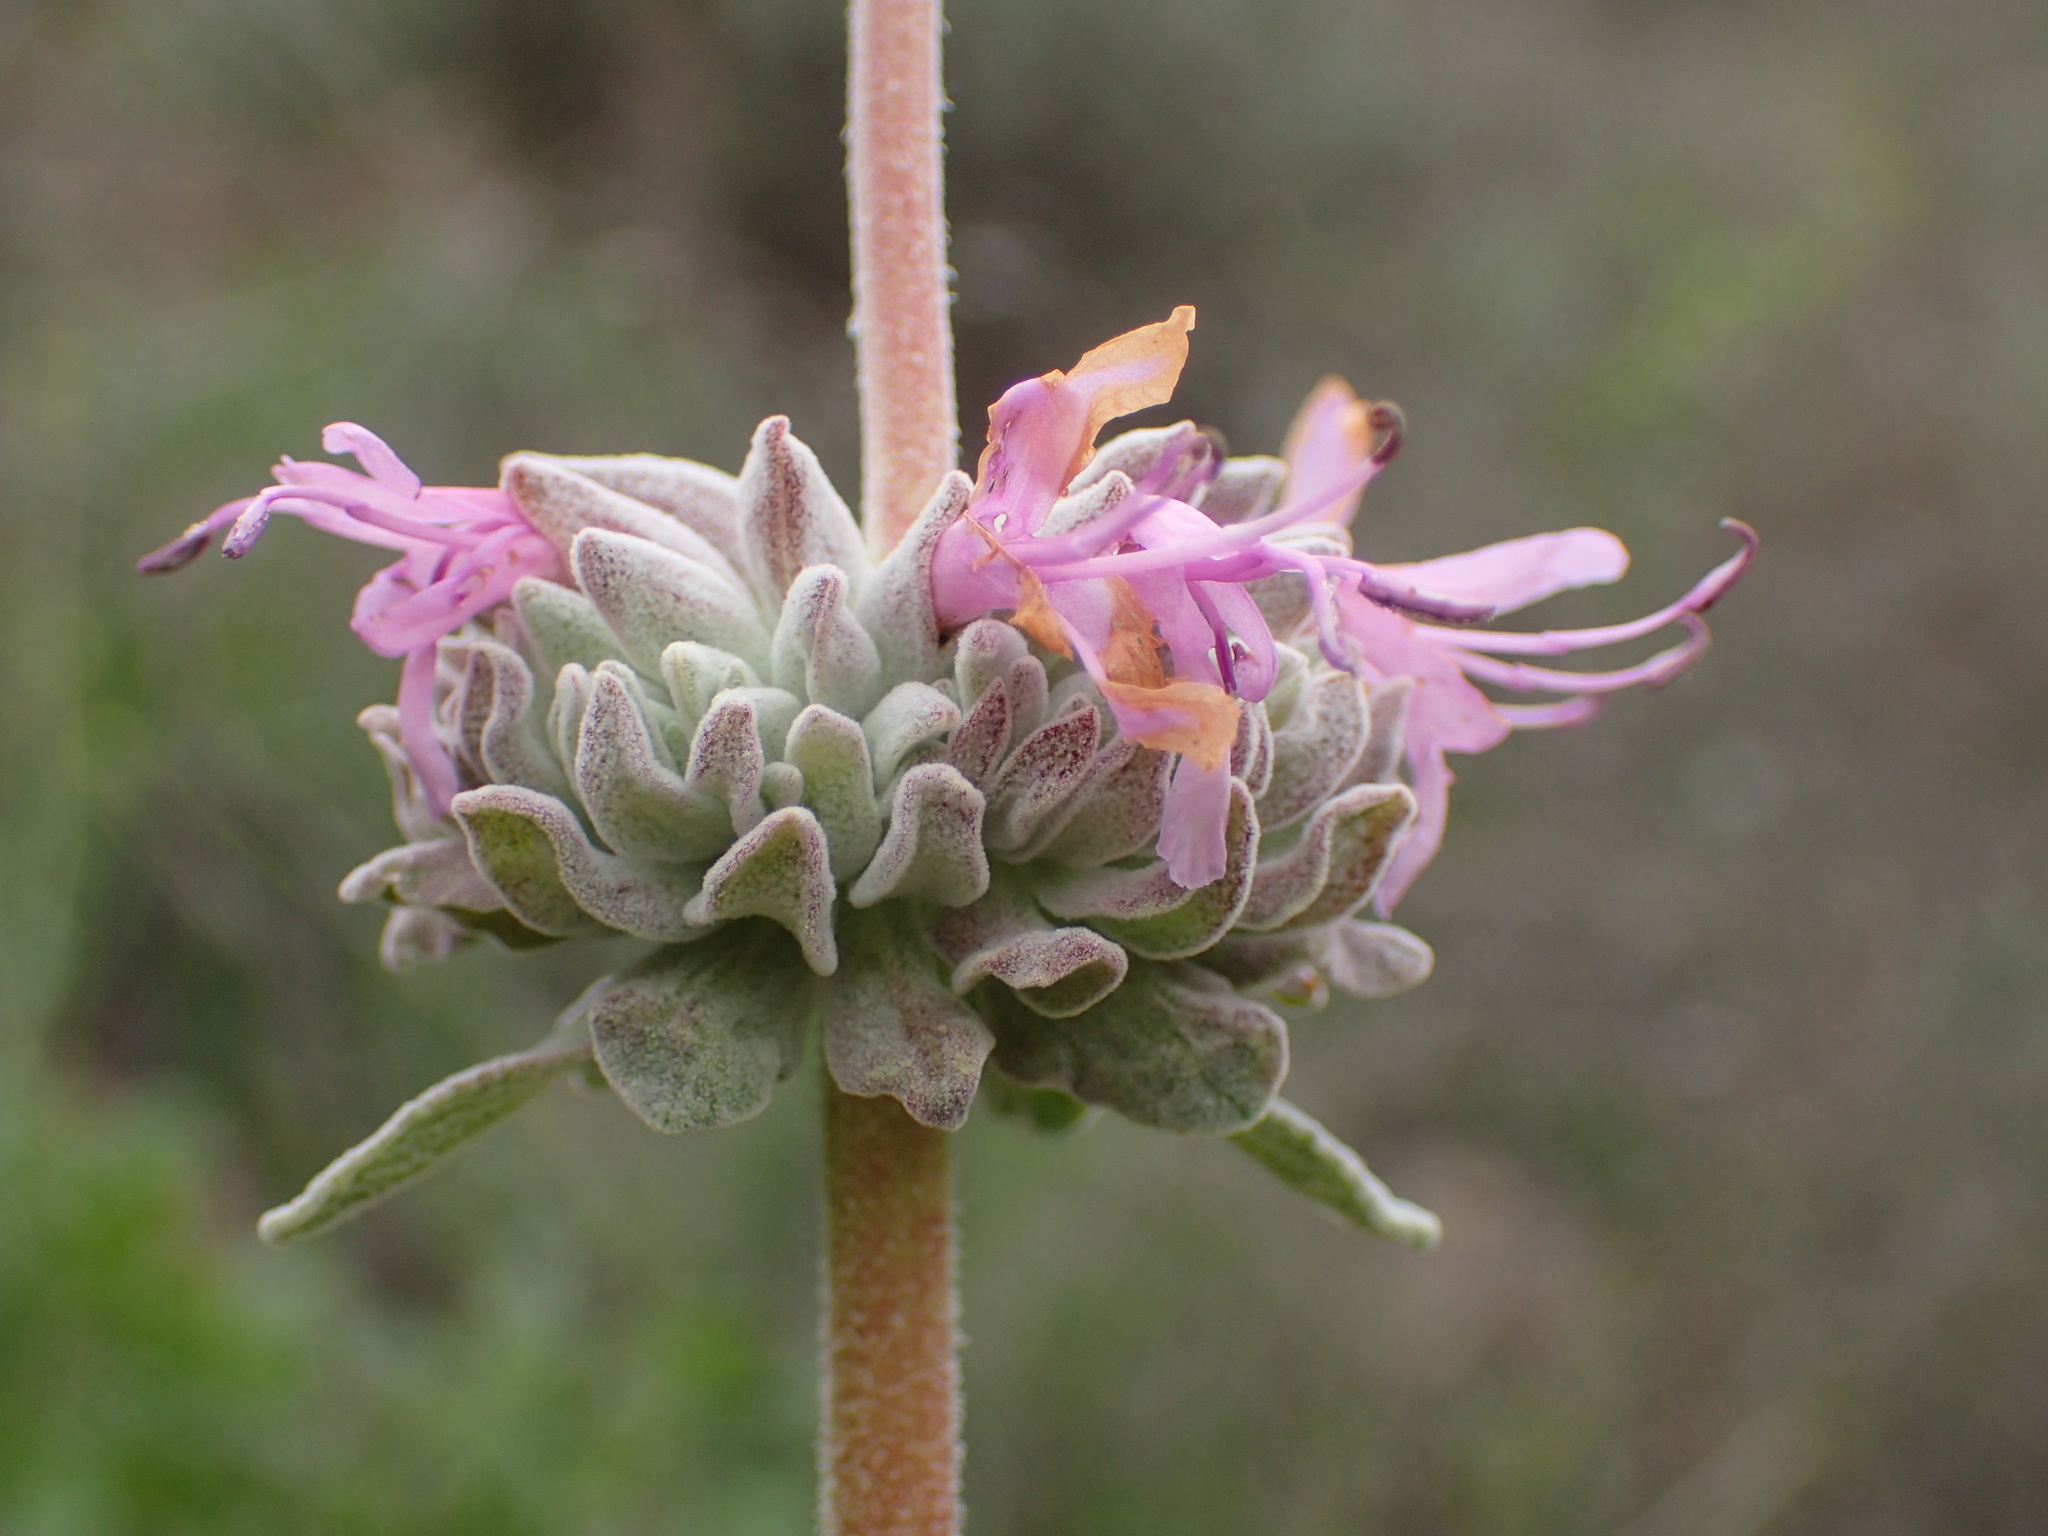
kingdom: Plantae
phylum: Tracheophyta
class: Magnoliopsida
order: Lamiales
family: Lamiaceae
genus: Salvia
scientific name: Salvia leucophylla
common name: Purple sage
